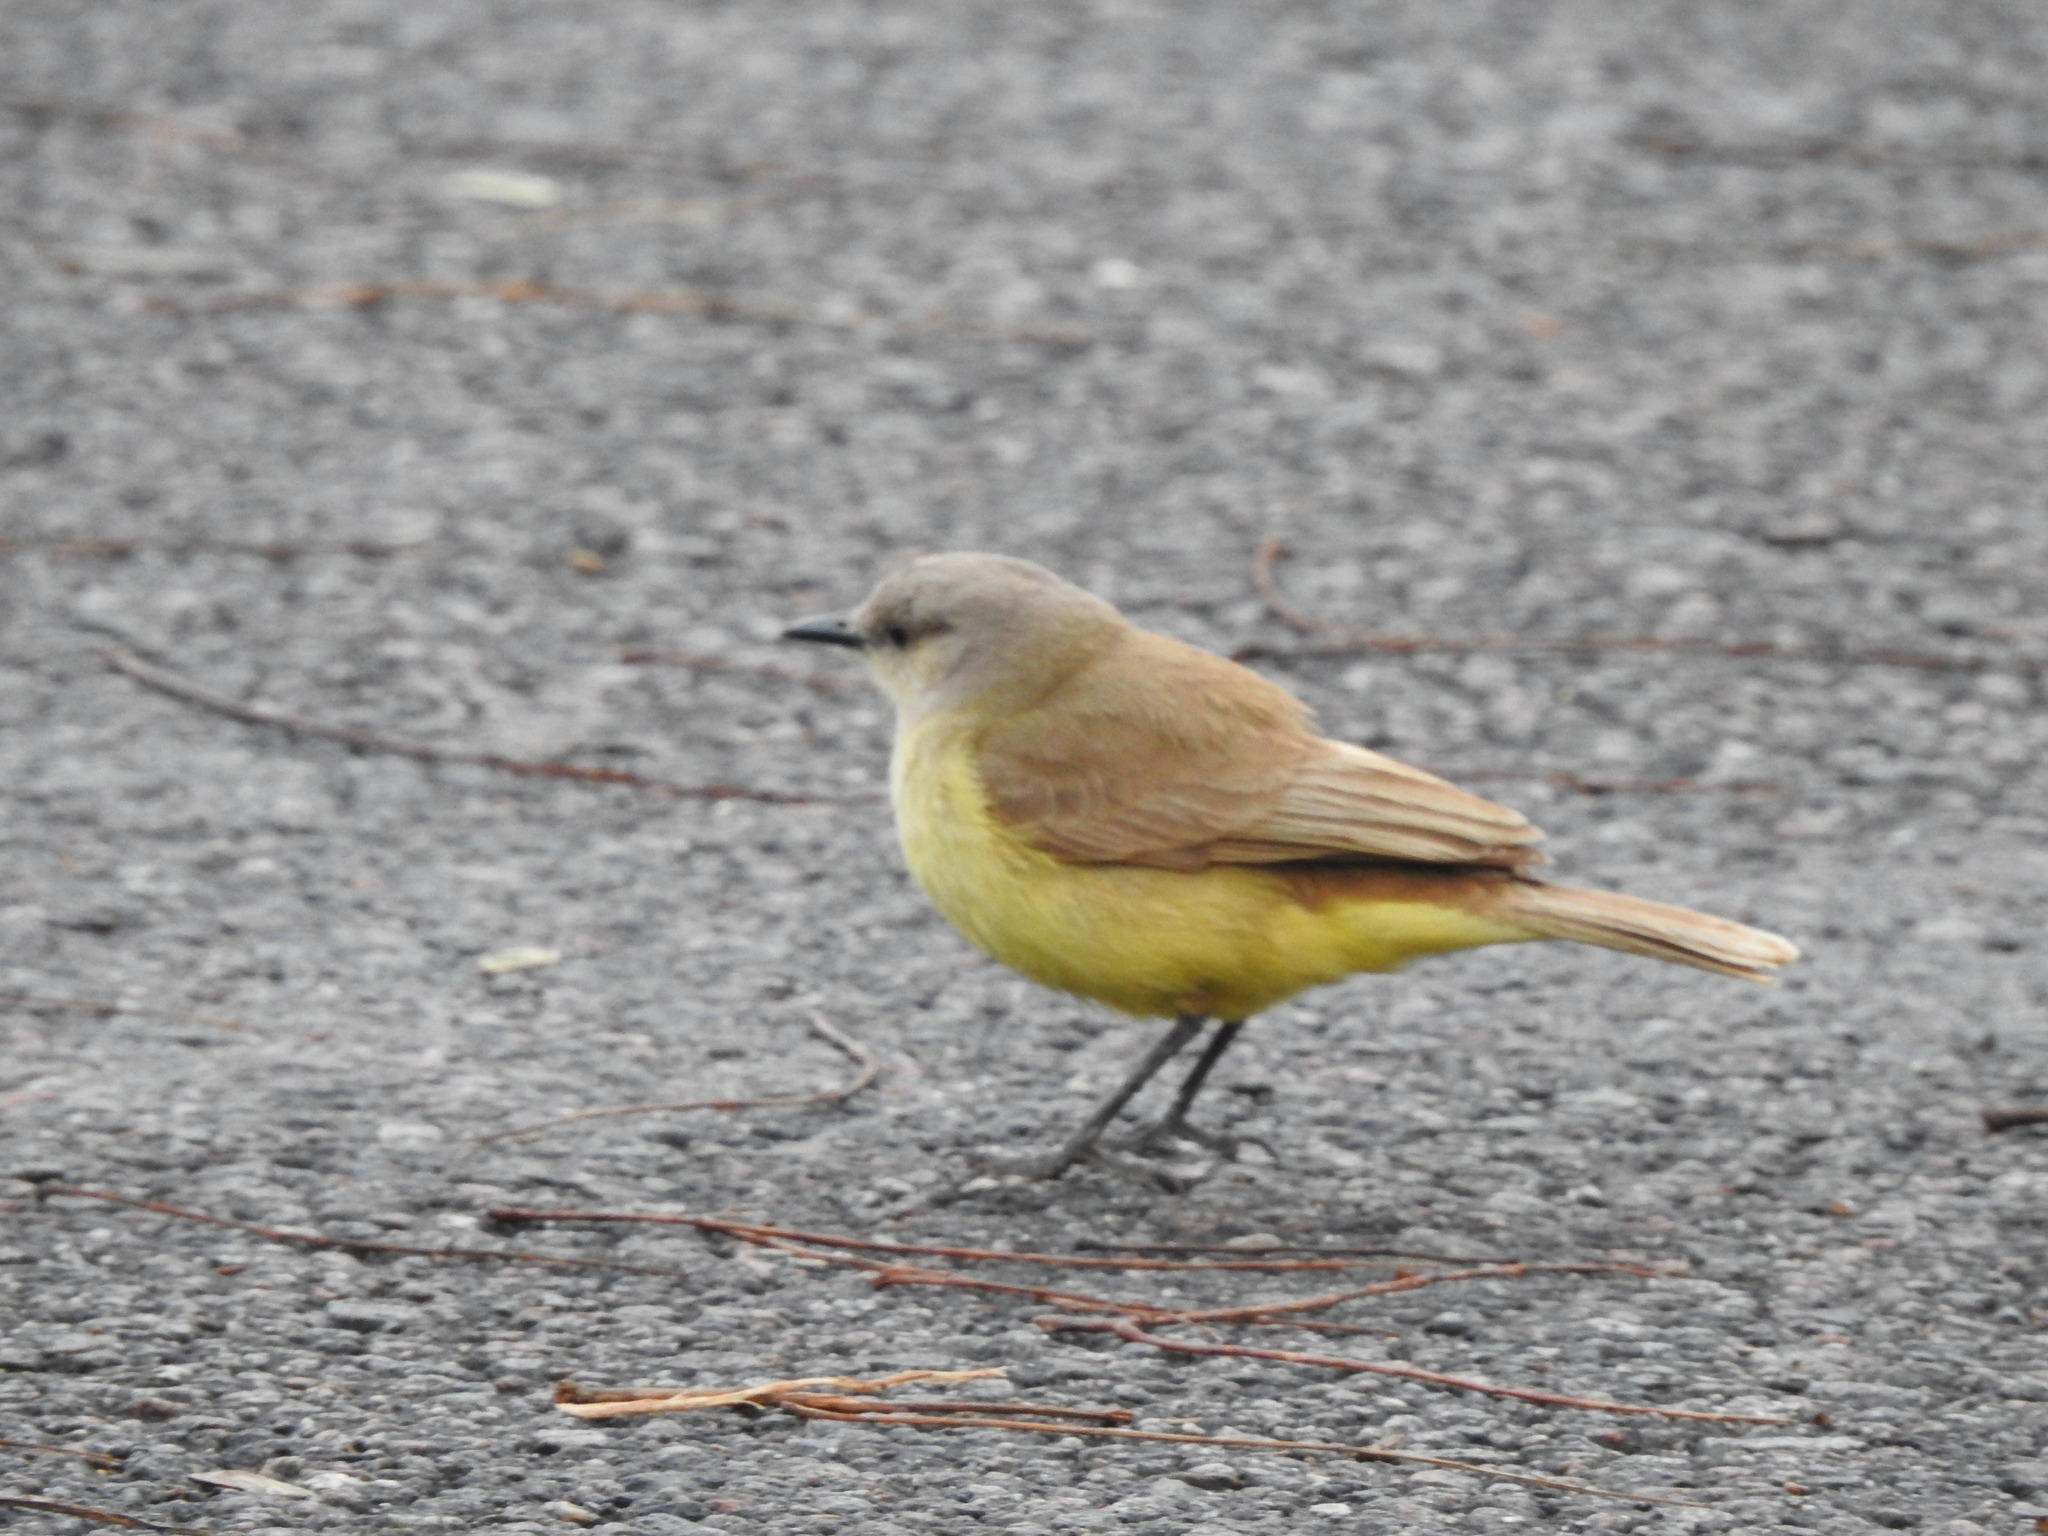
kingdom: Animalia
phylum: Chordata
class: Aves
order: Passeriformes
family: Tyrannidae
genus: Machetornis
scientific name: Machetornis rixosa
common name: Cattle tyrant
